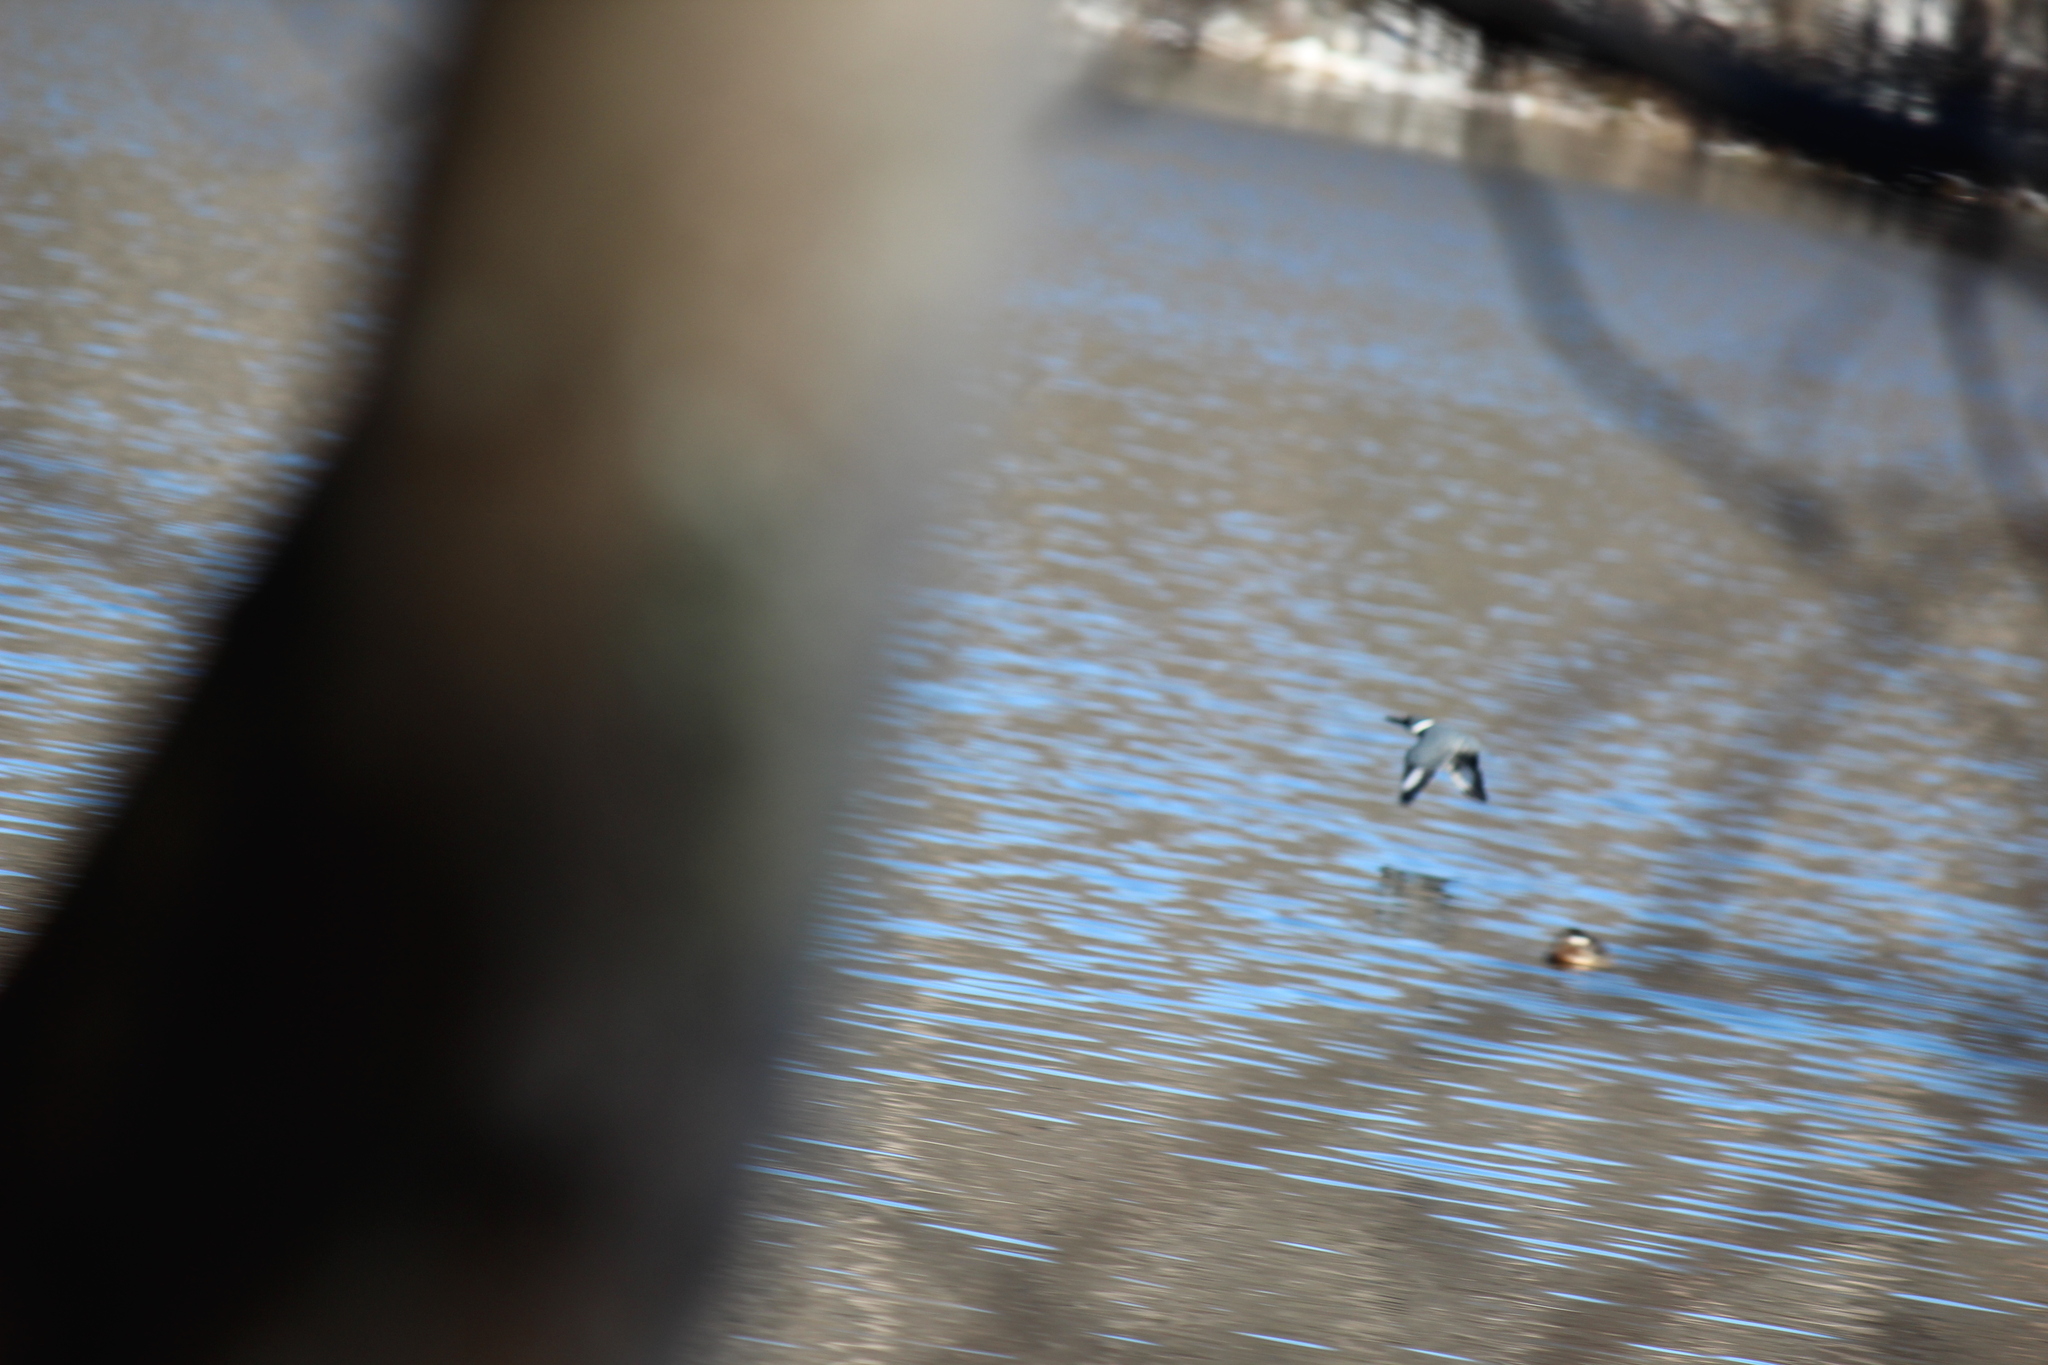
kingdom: Animalia
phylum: Chordata
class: Aves
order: Coraciiformes
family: Alcedinidae
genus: Megaceryle
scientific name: Megaceryle alcyon
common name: Belted kingfisher
